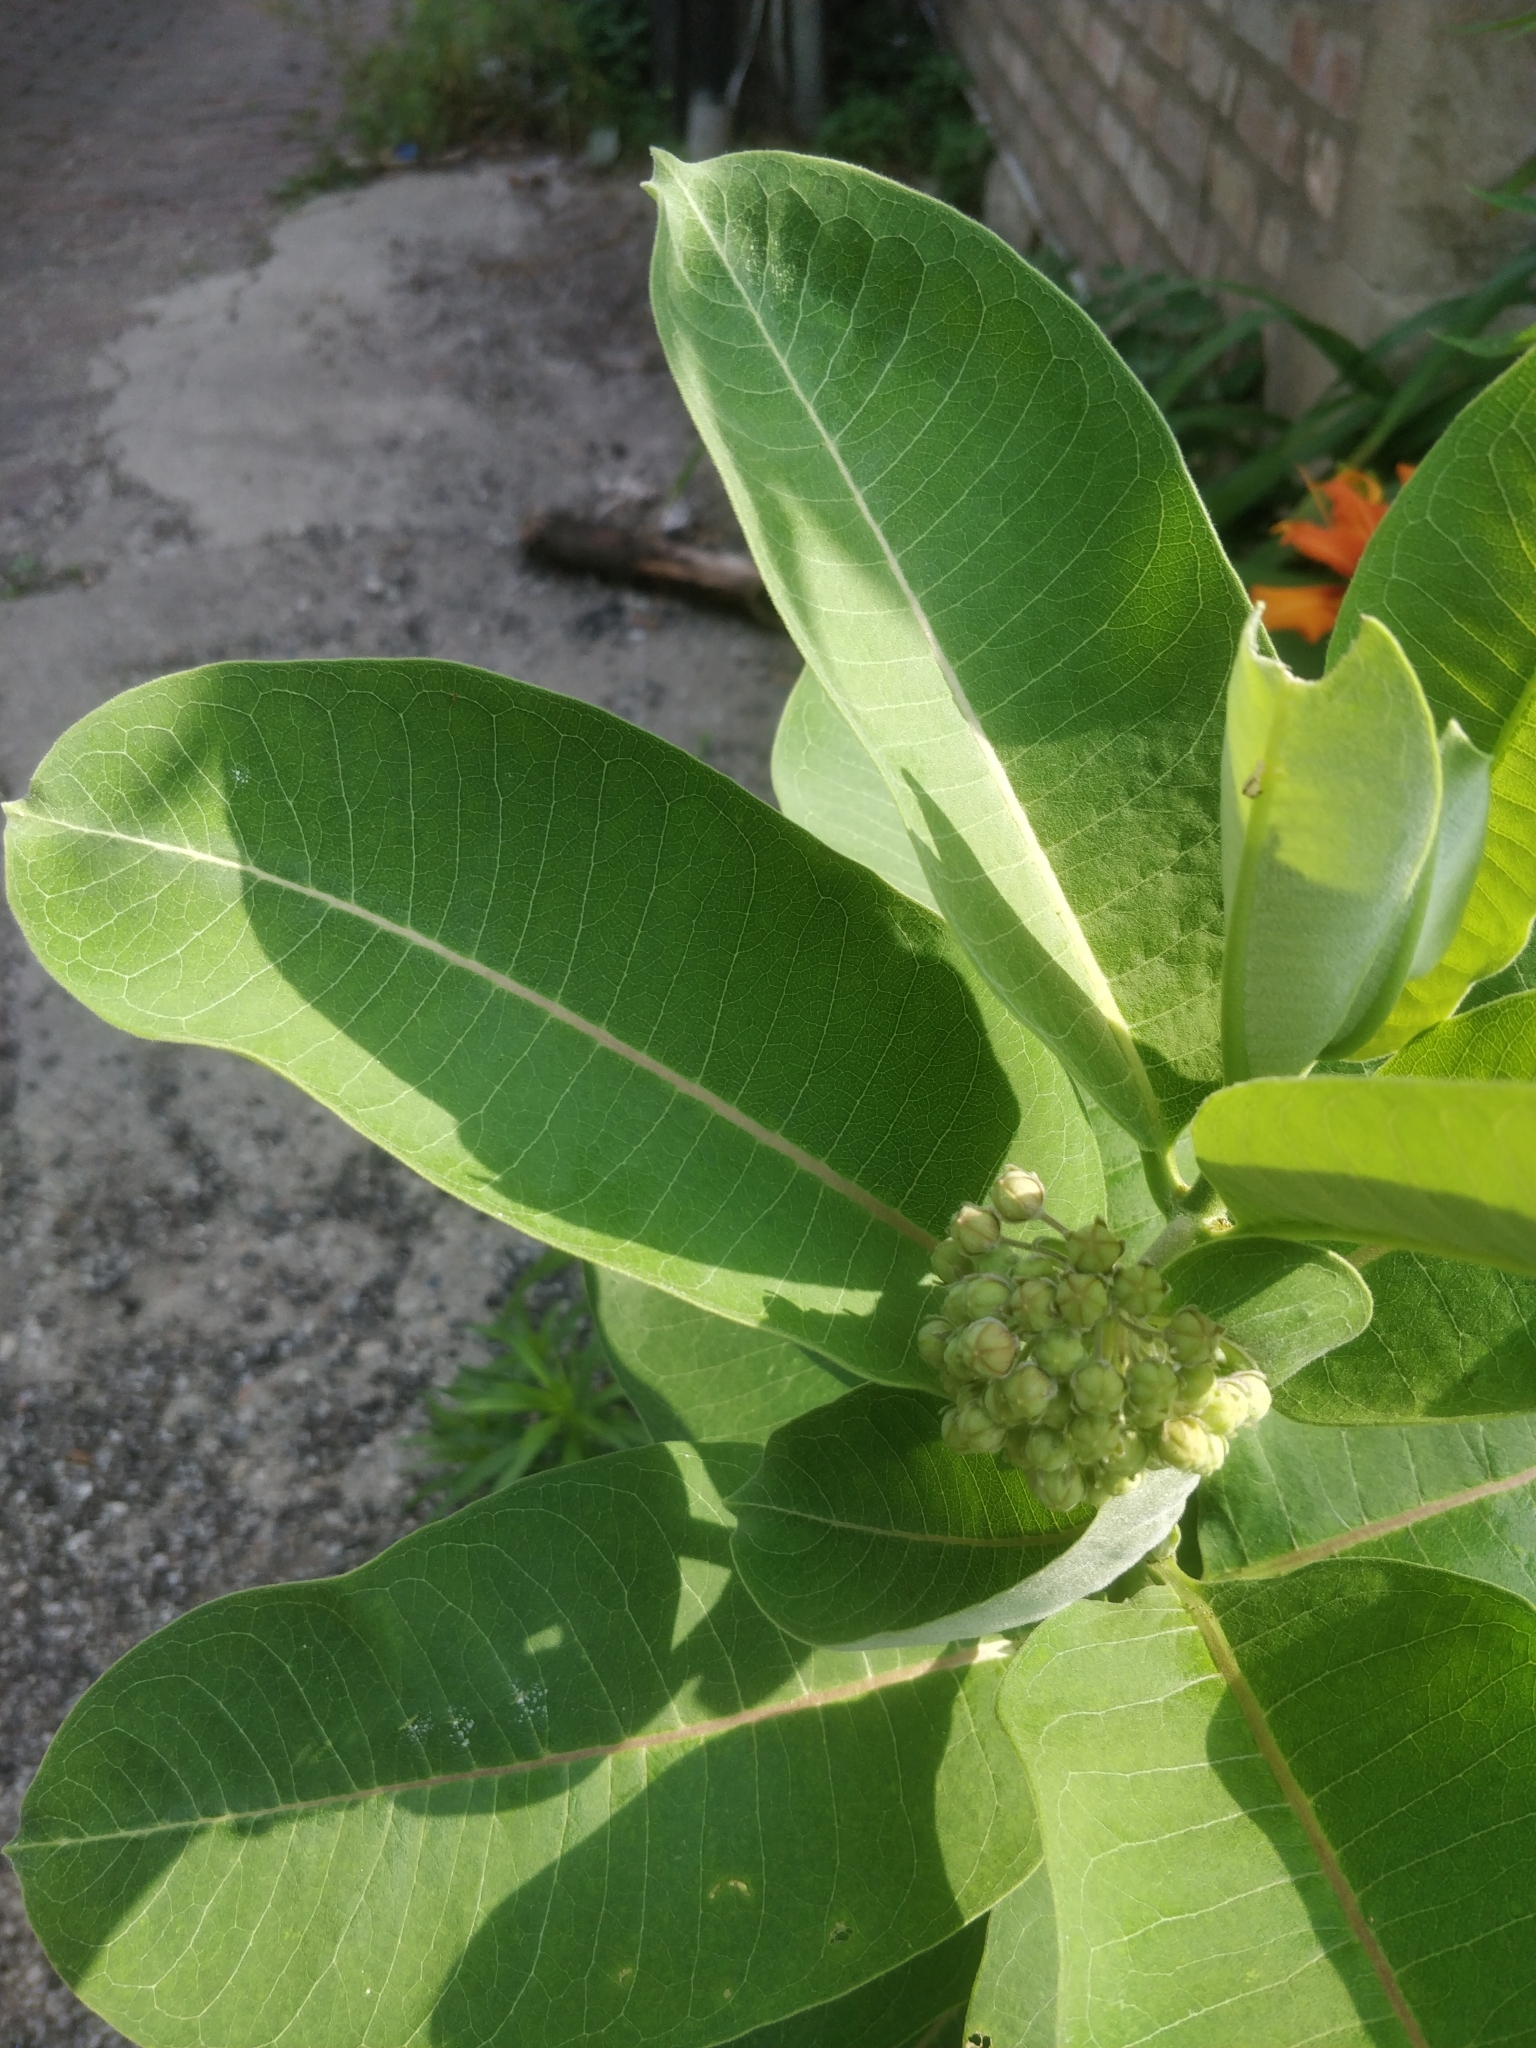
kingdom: Plantae
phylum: Tracheophyta
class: Magnoliopsida
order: Gentianales
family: Apocynaceae
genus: Asclepias
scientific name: Asclepias syriaca
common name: Common milkweed
